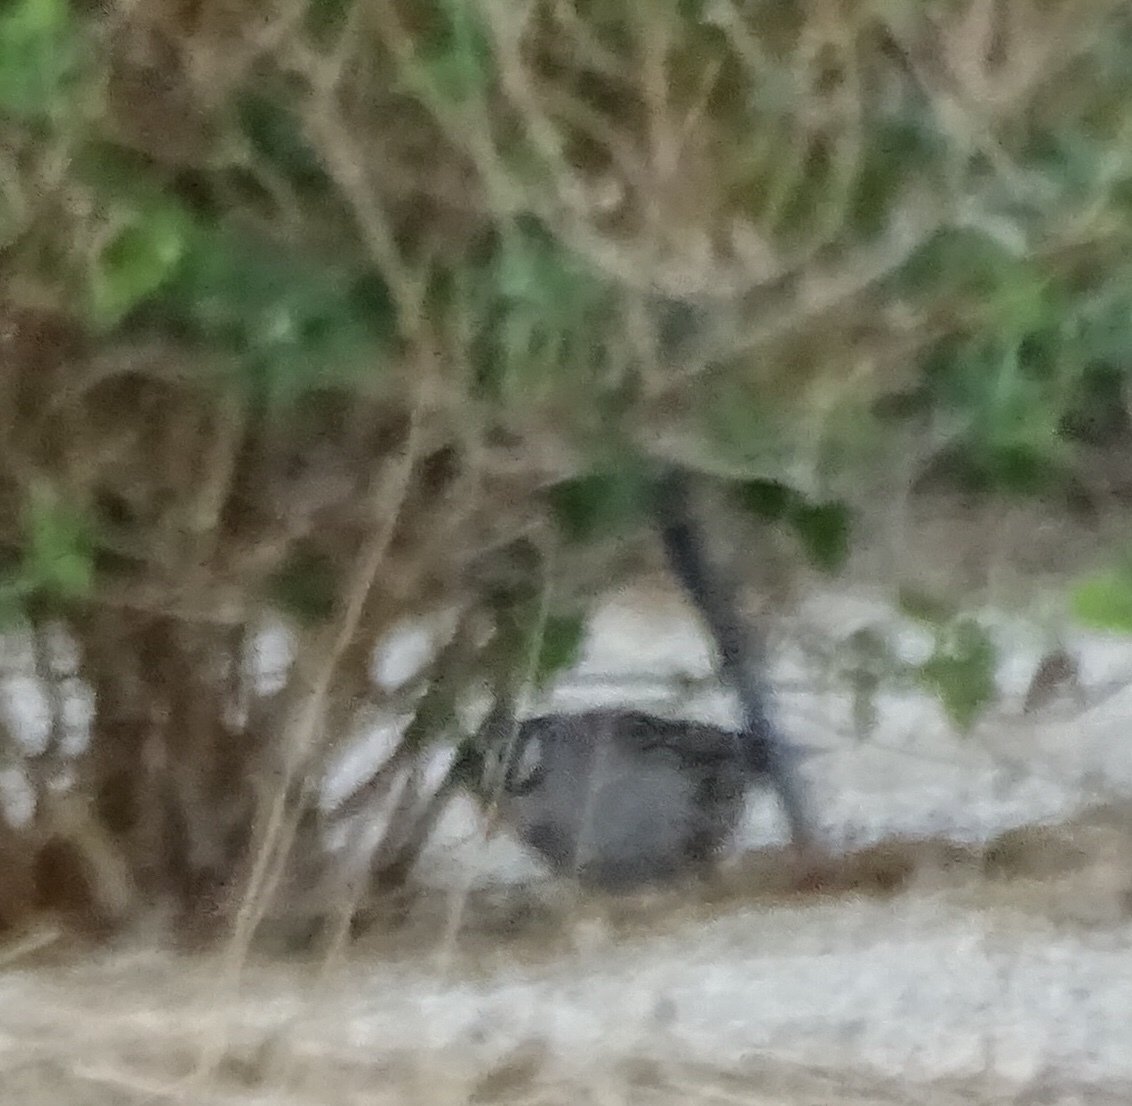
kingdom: Animalia
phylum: Chordata
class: Aves
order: Passeriformes
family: Passerellidae
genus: Zonotrichia
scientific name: Zonotrichia leucophrys
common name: White-crowned sparrow
